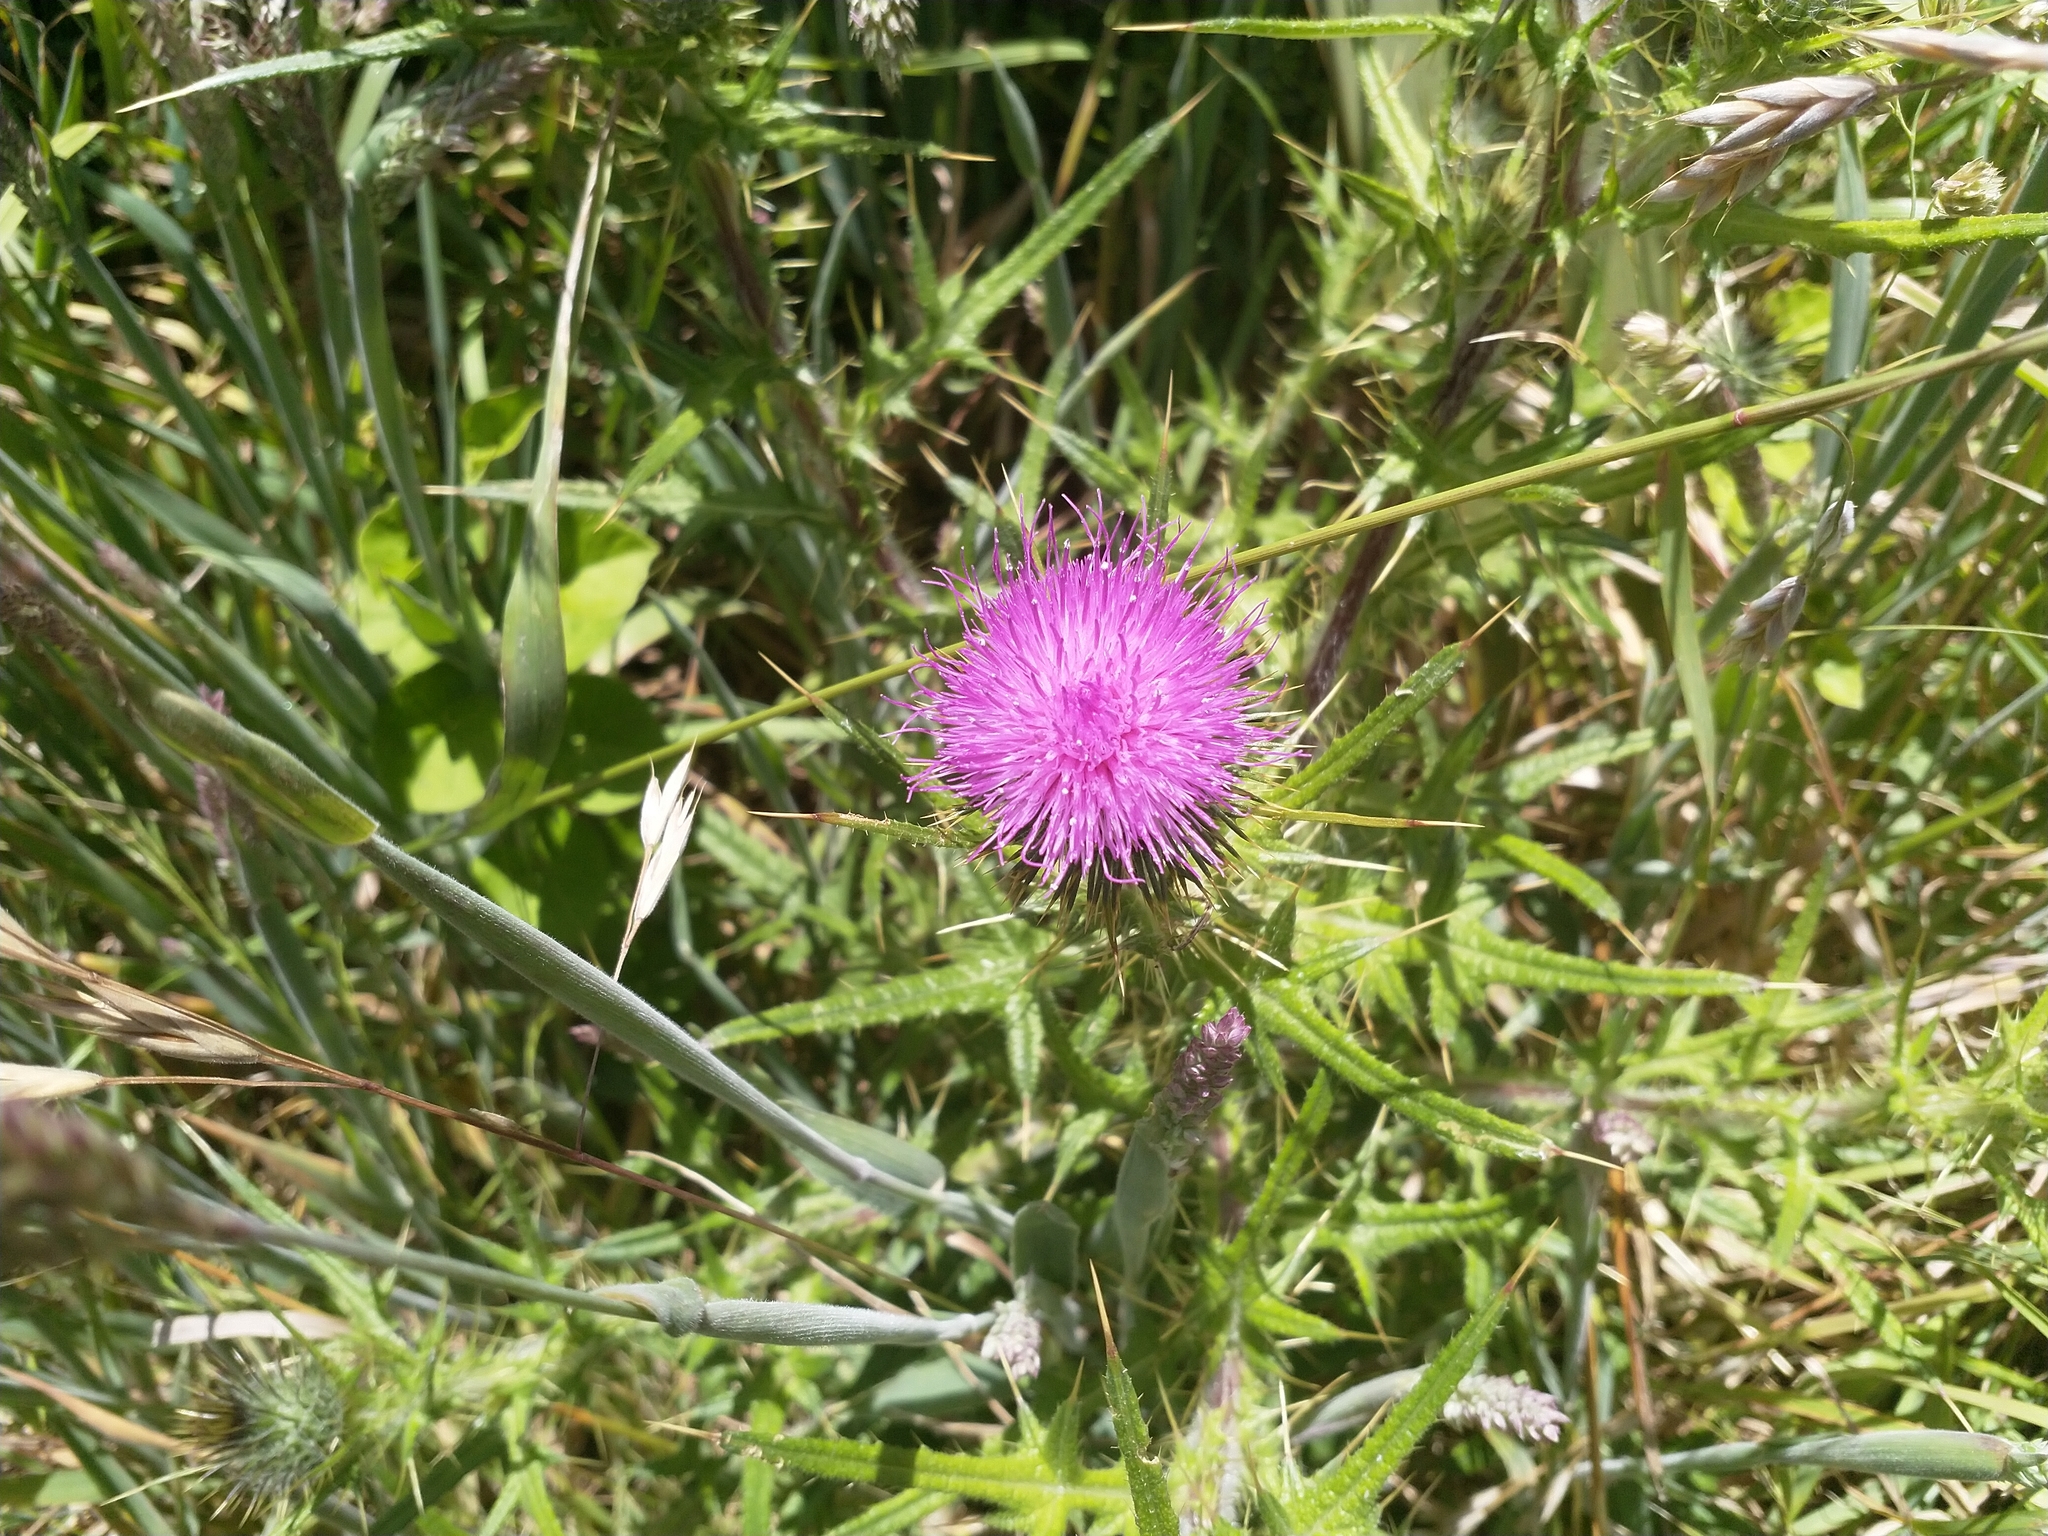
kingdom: Plantae
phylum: Tracheophyta
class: Magnoliopsida
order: Asterales
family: Asteraceae
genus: Cirsium
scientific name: Cirsium vulgare
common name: Bull thistle
